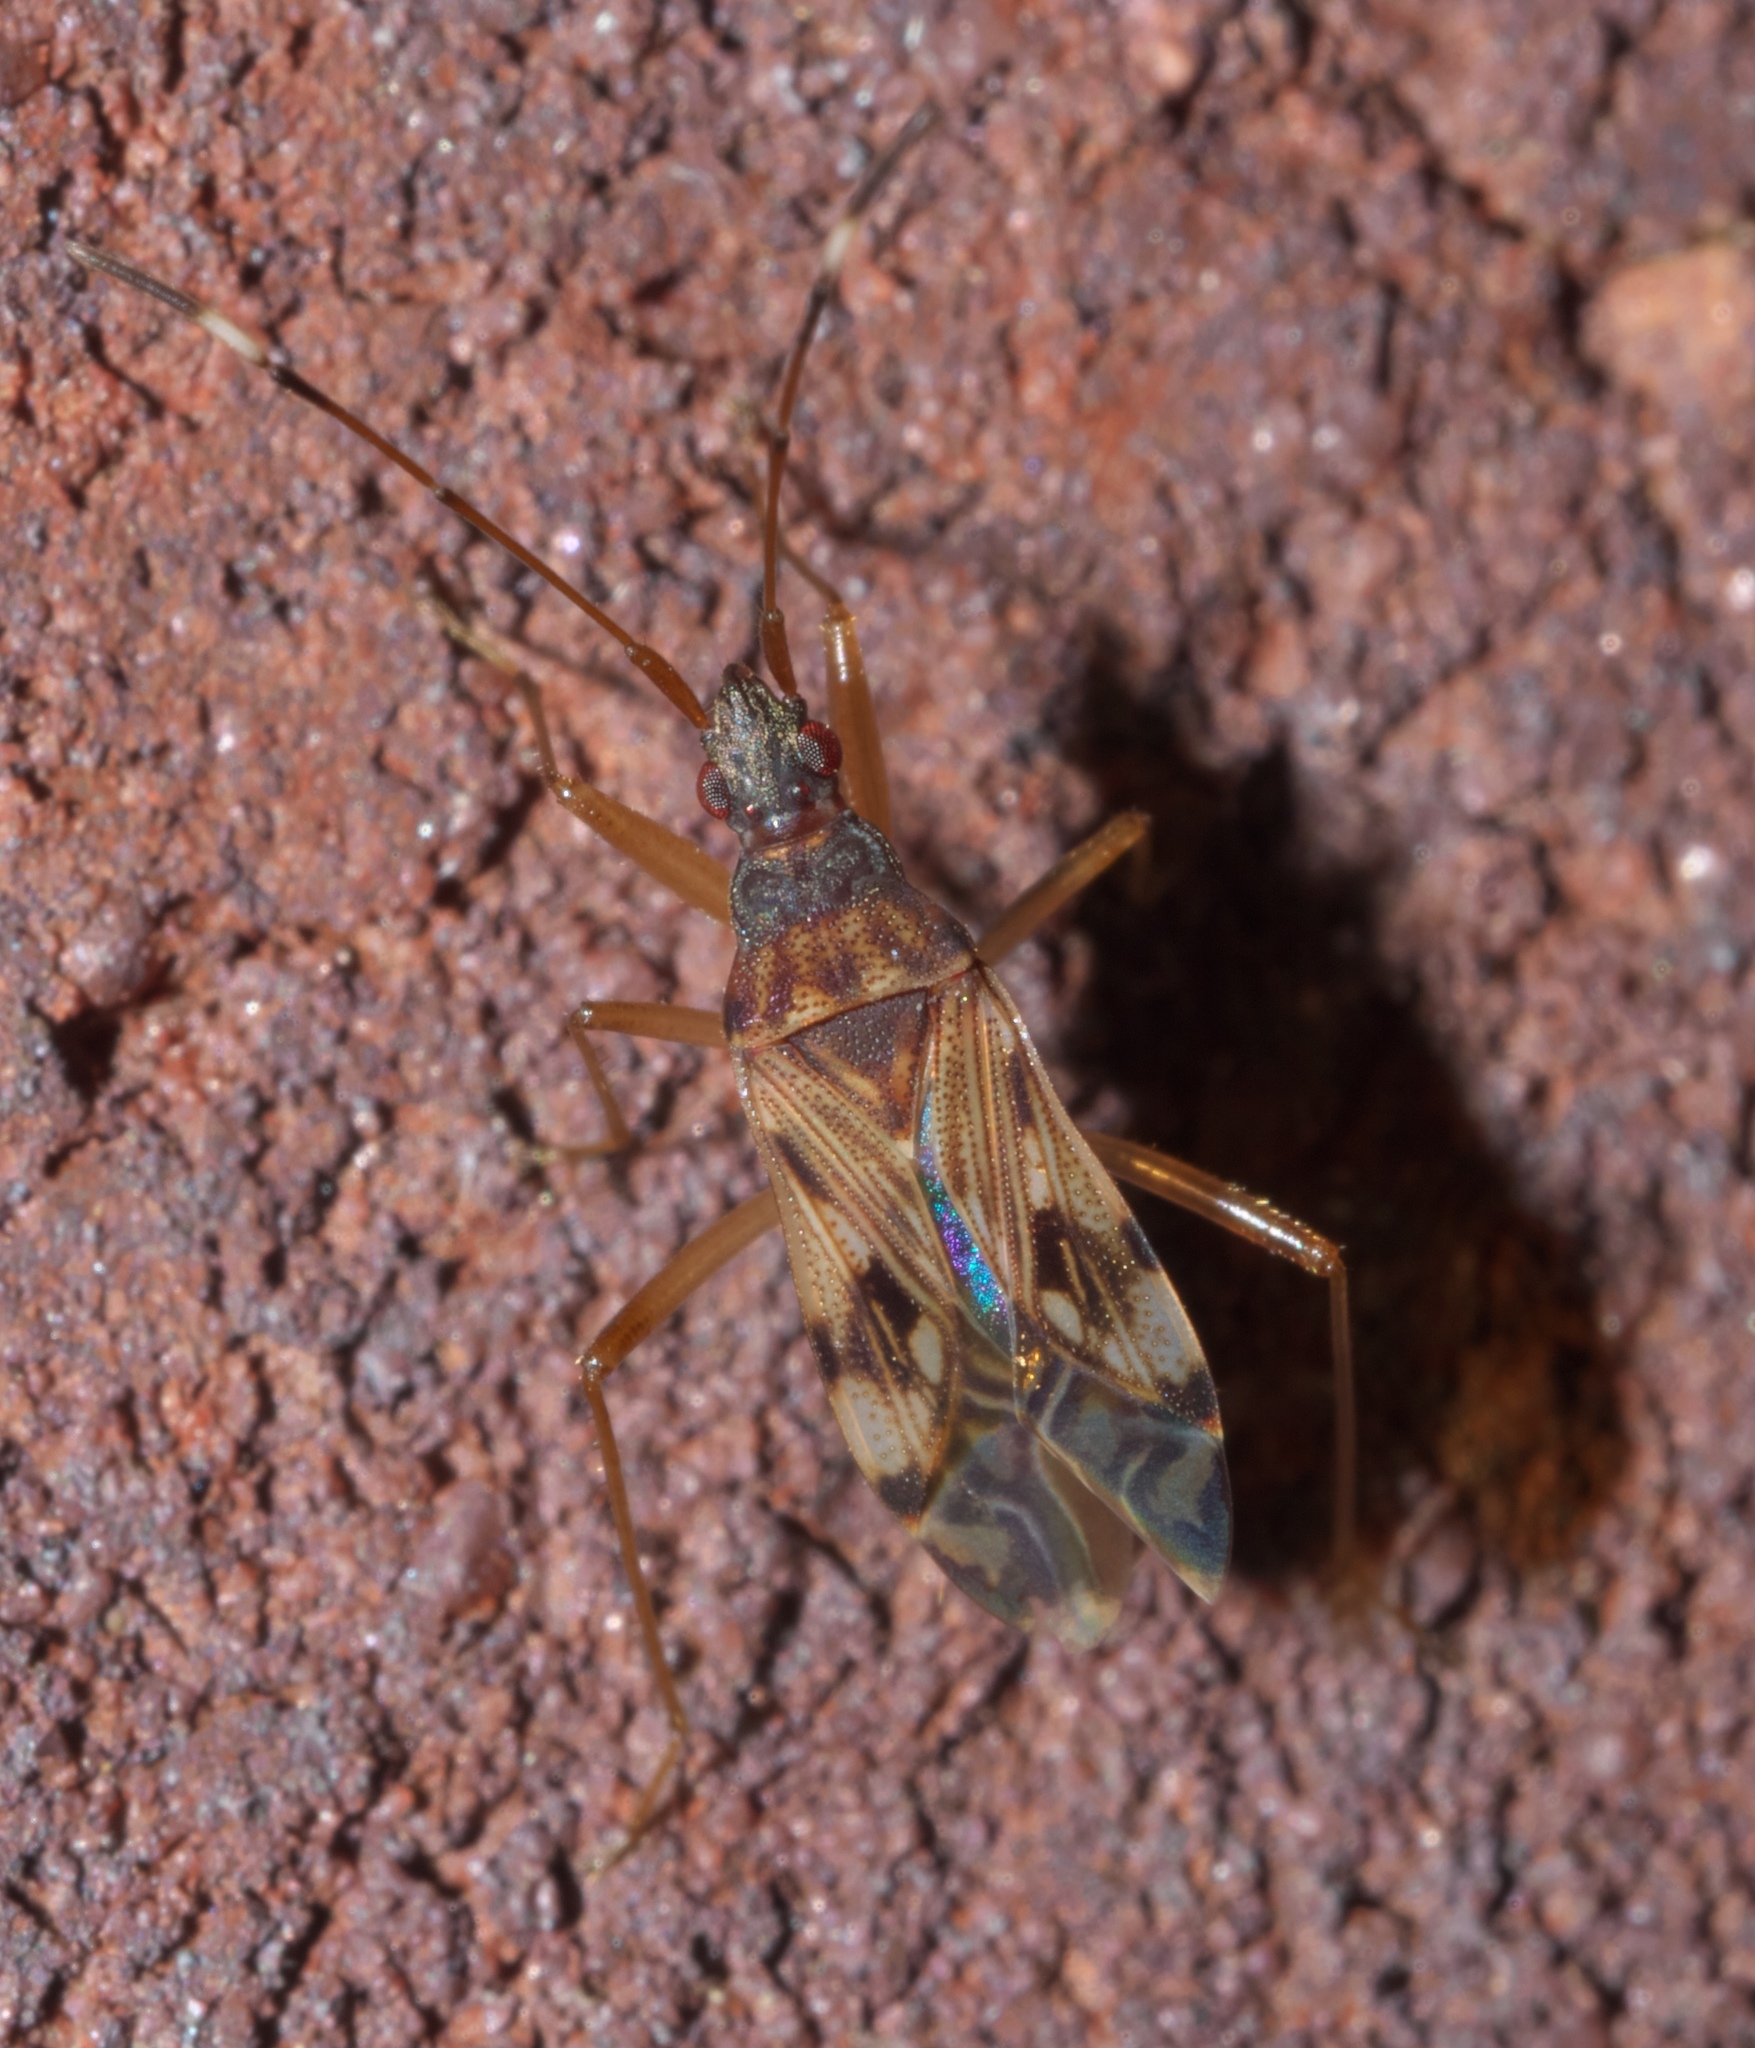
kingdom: Animalia
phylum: Arthropoda
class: Insecta
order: Hemiptera
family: Rhyparochromidae
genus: Ozophora
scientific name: Ozophora picturata
